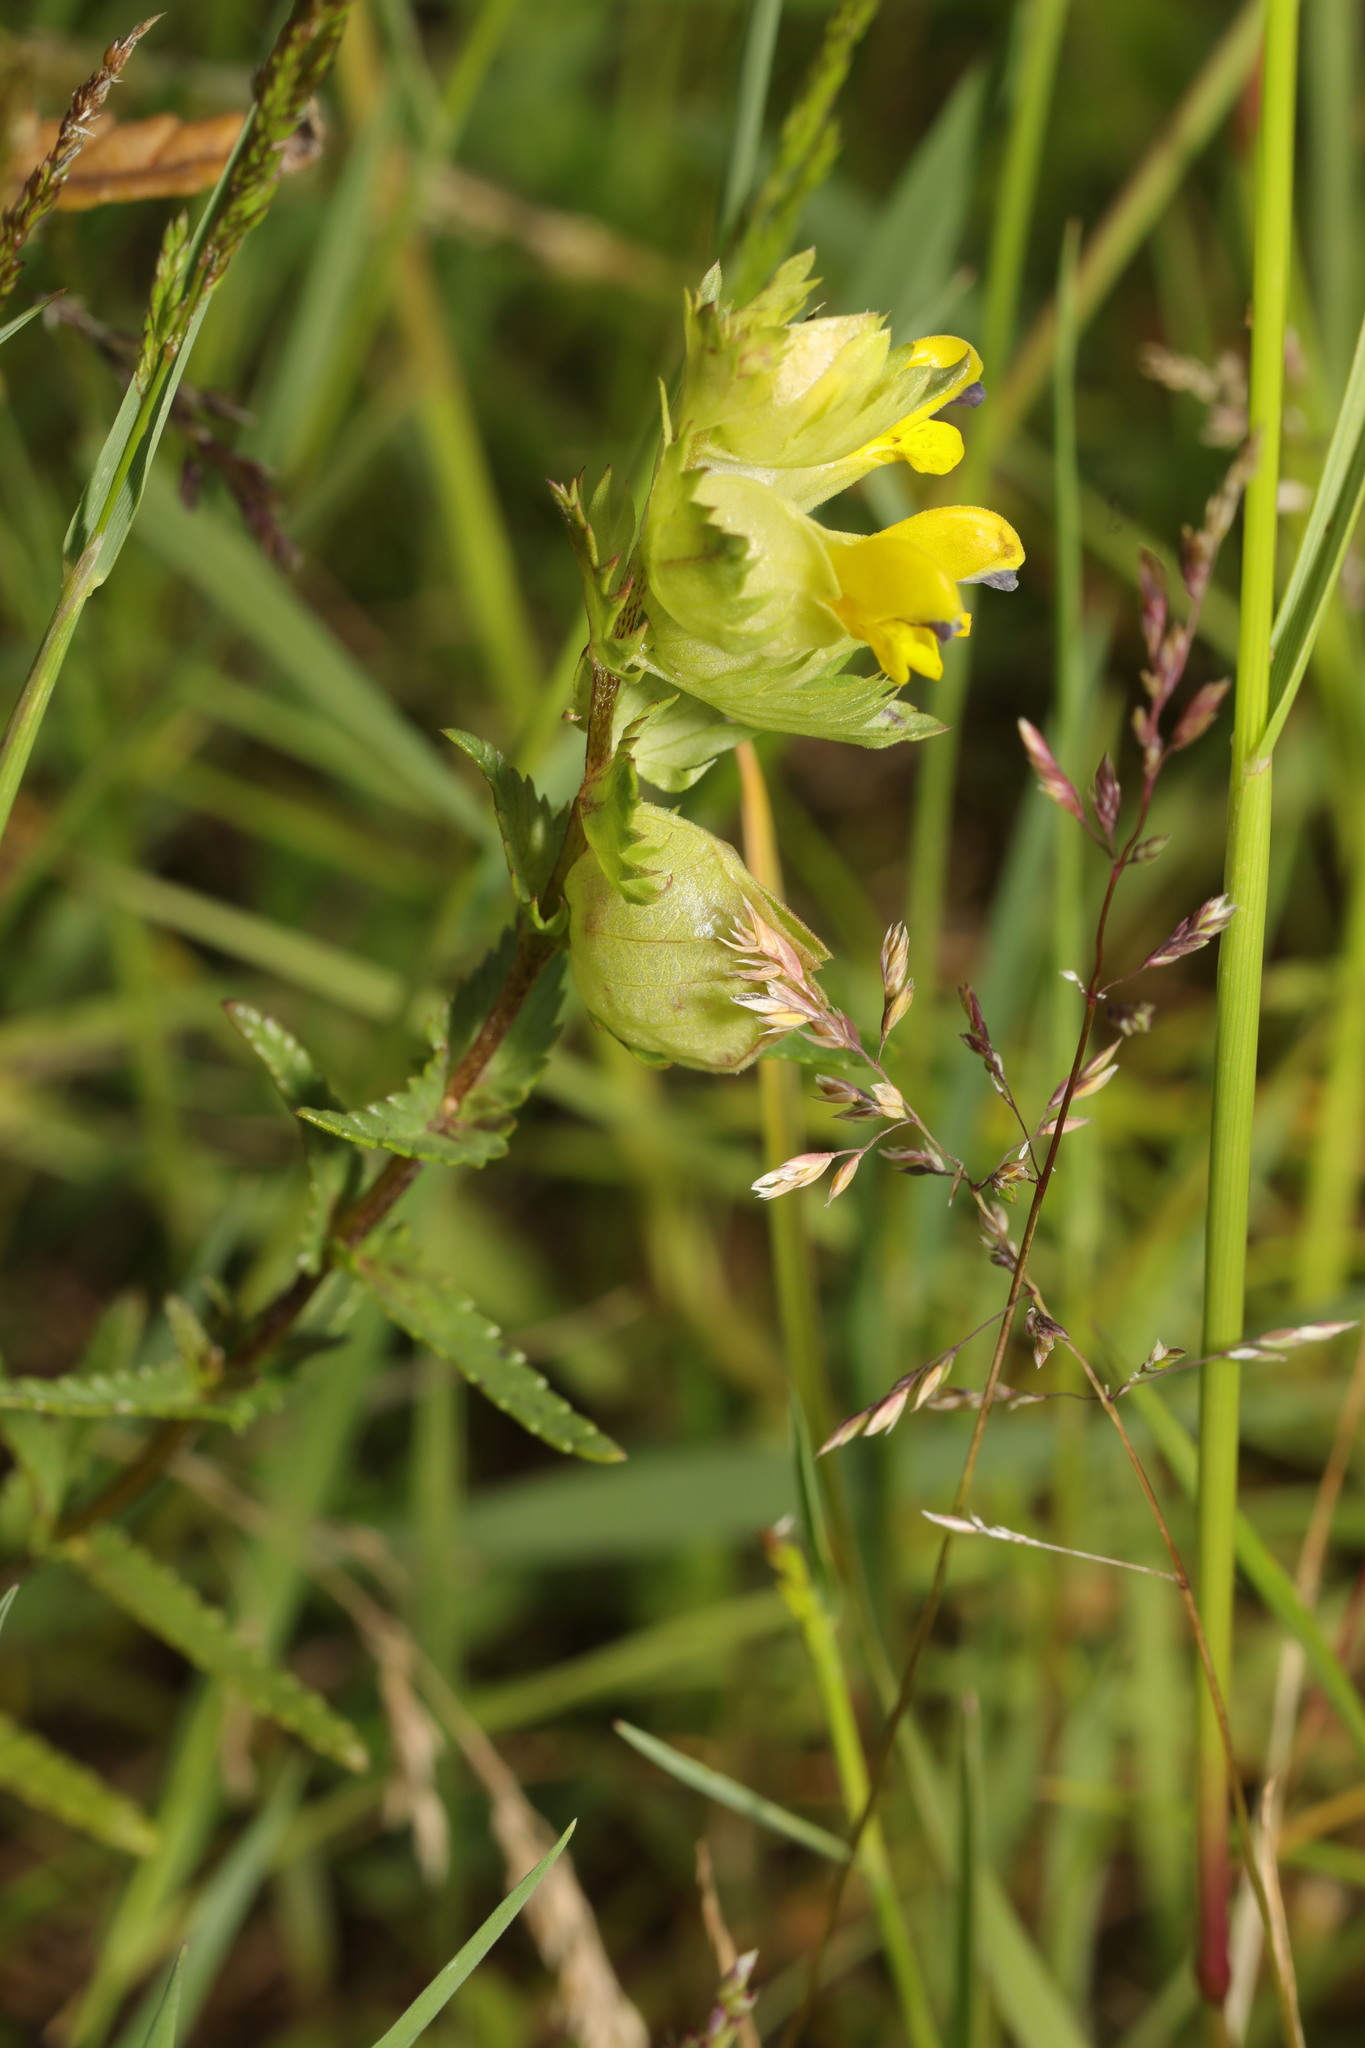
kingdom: Plantae
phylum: Tracheophyta
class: Magnoliopsida
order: Lamiales
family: Orobanchaceae
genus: Rhinanthus
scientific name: Rhinanthus minor
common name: Yellow-rattle
